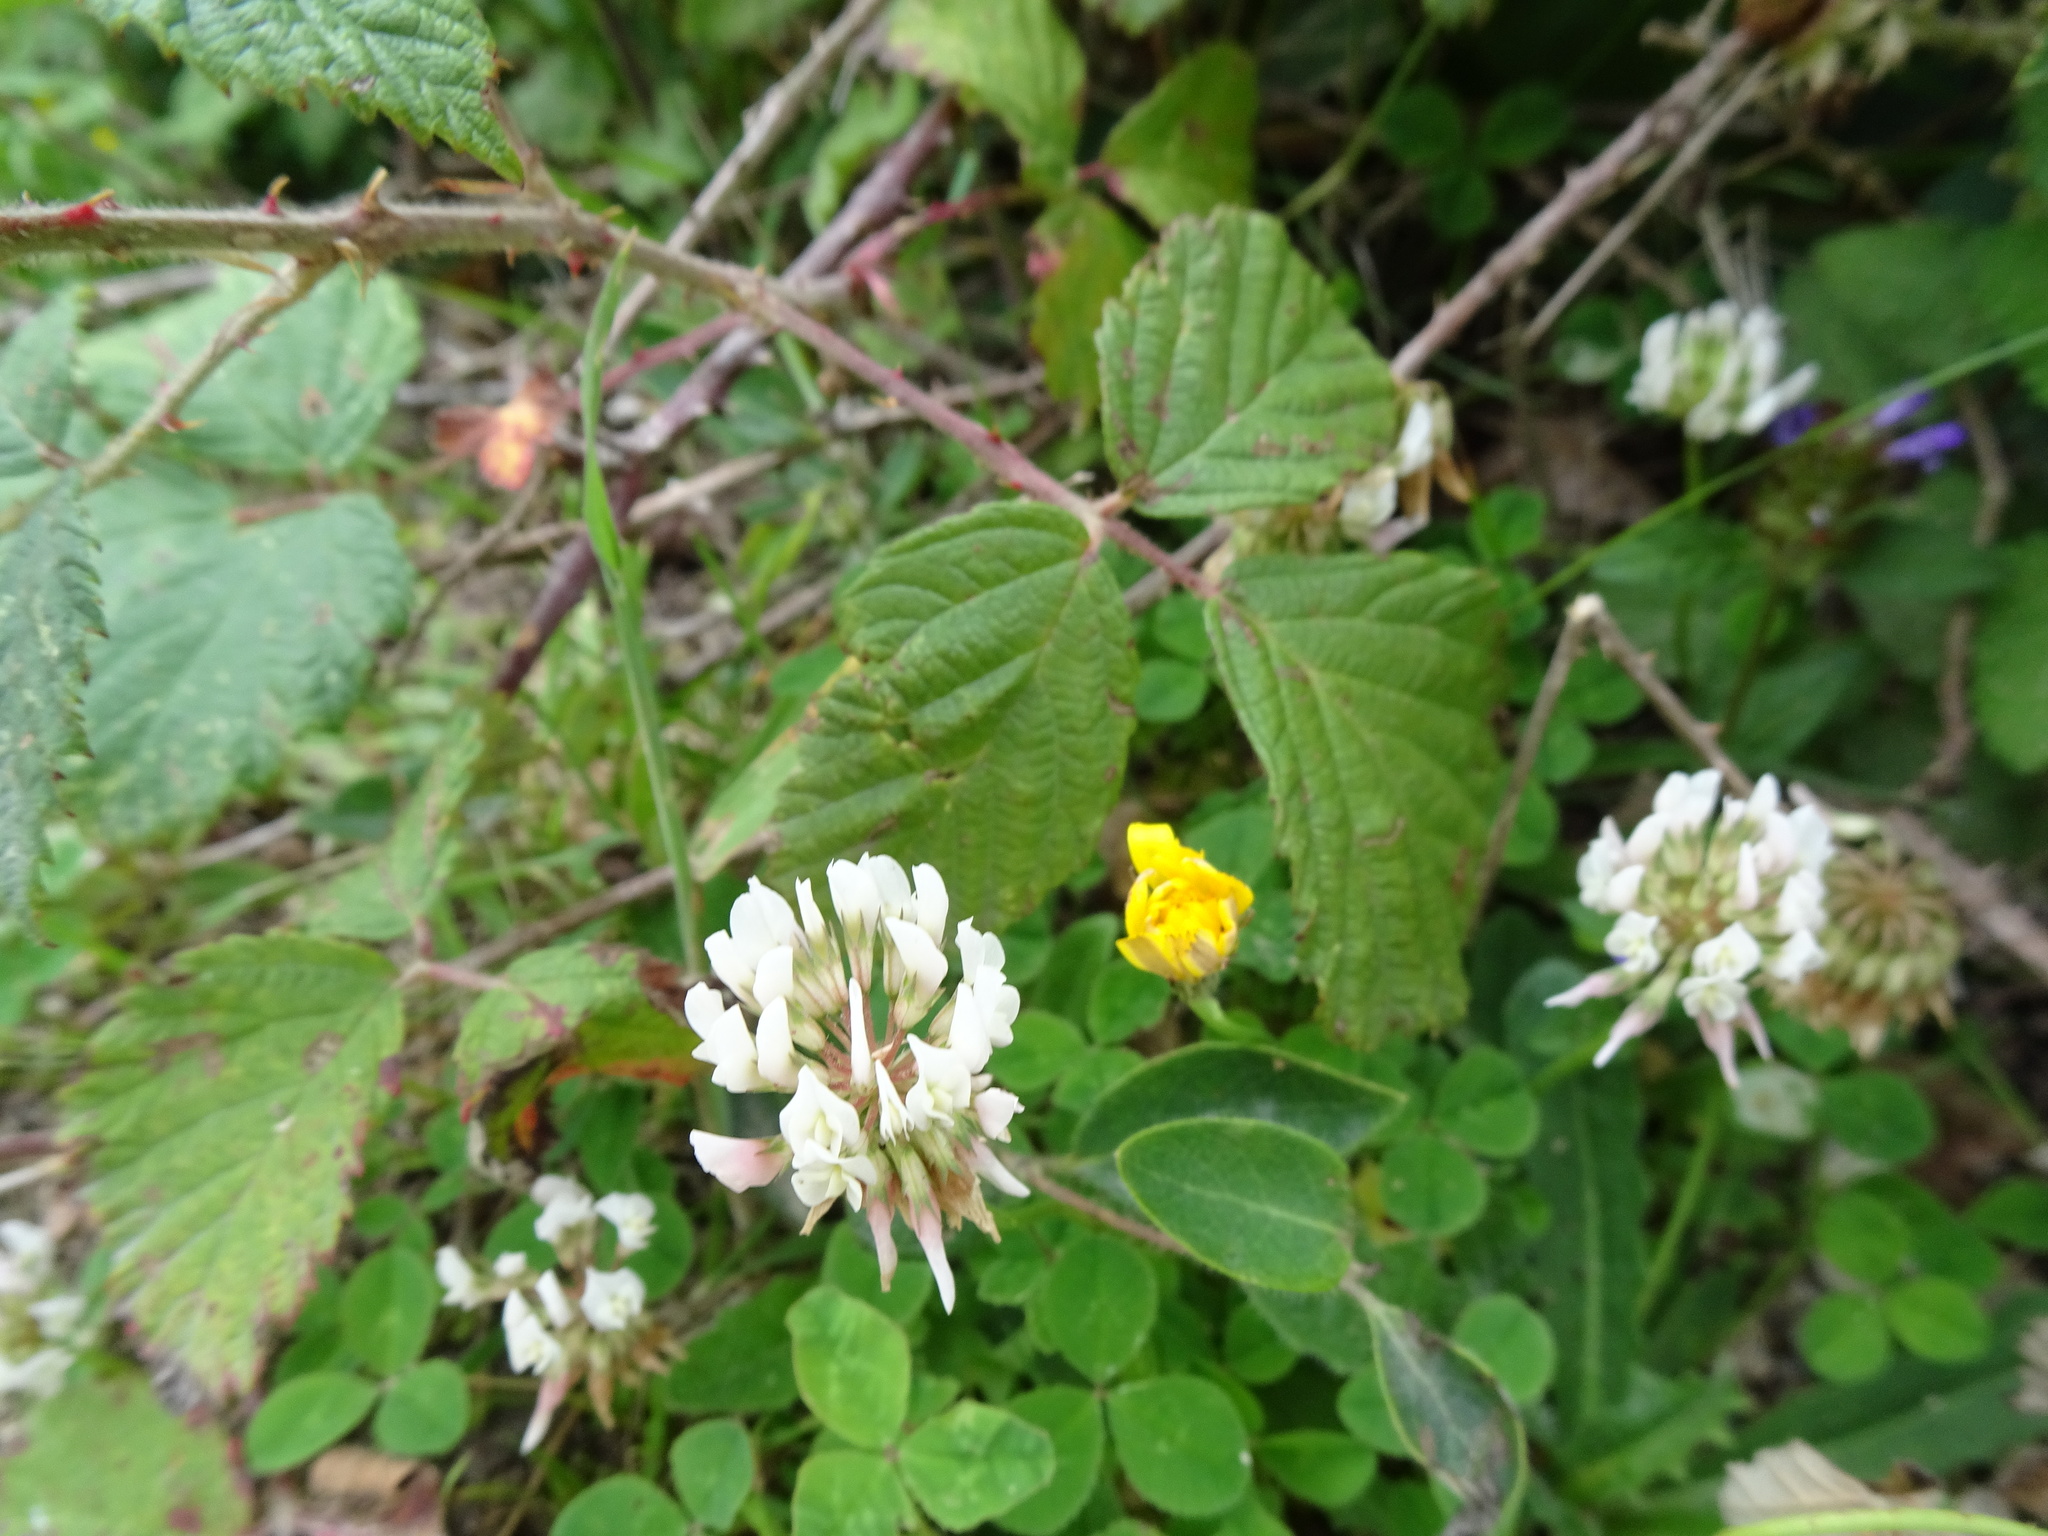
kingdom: Plantae
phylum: Tracheophyta
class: Magnoliopsida
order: Fabales
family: Fabaceae
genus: Trifolium
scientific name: Trifolium repens
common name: White clover
